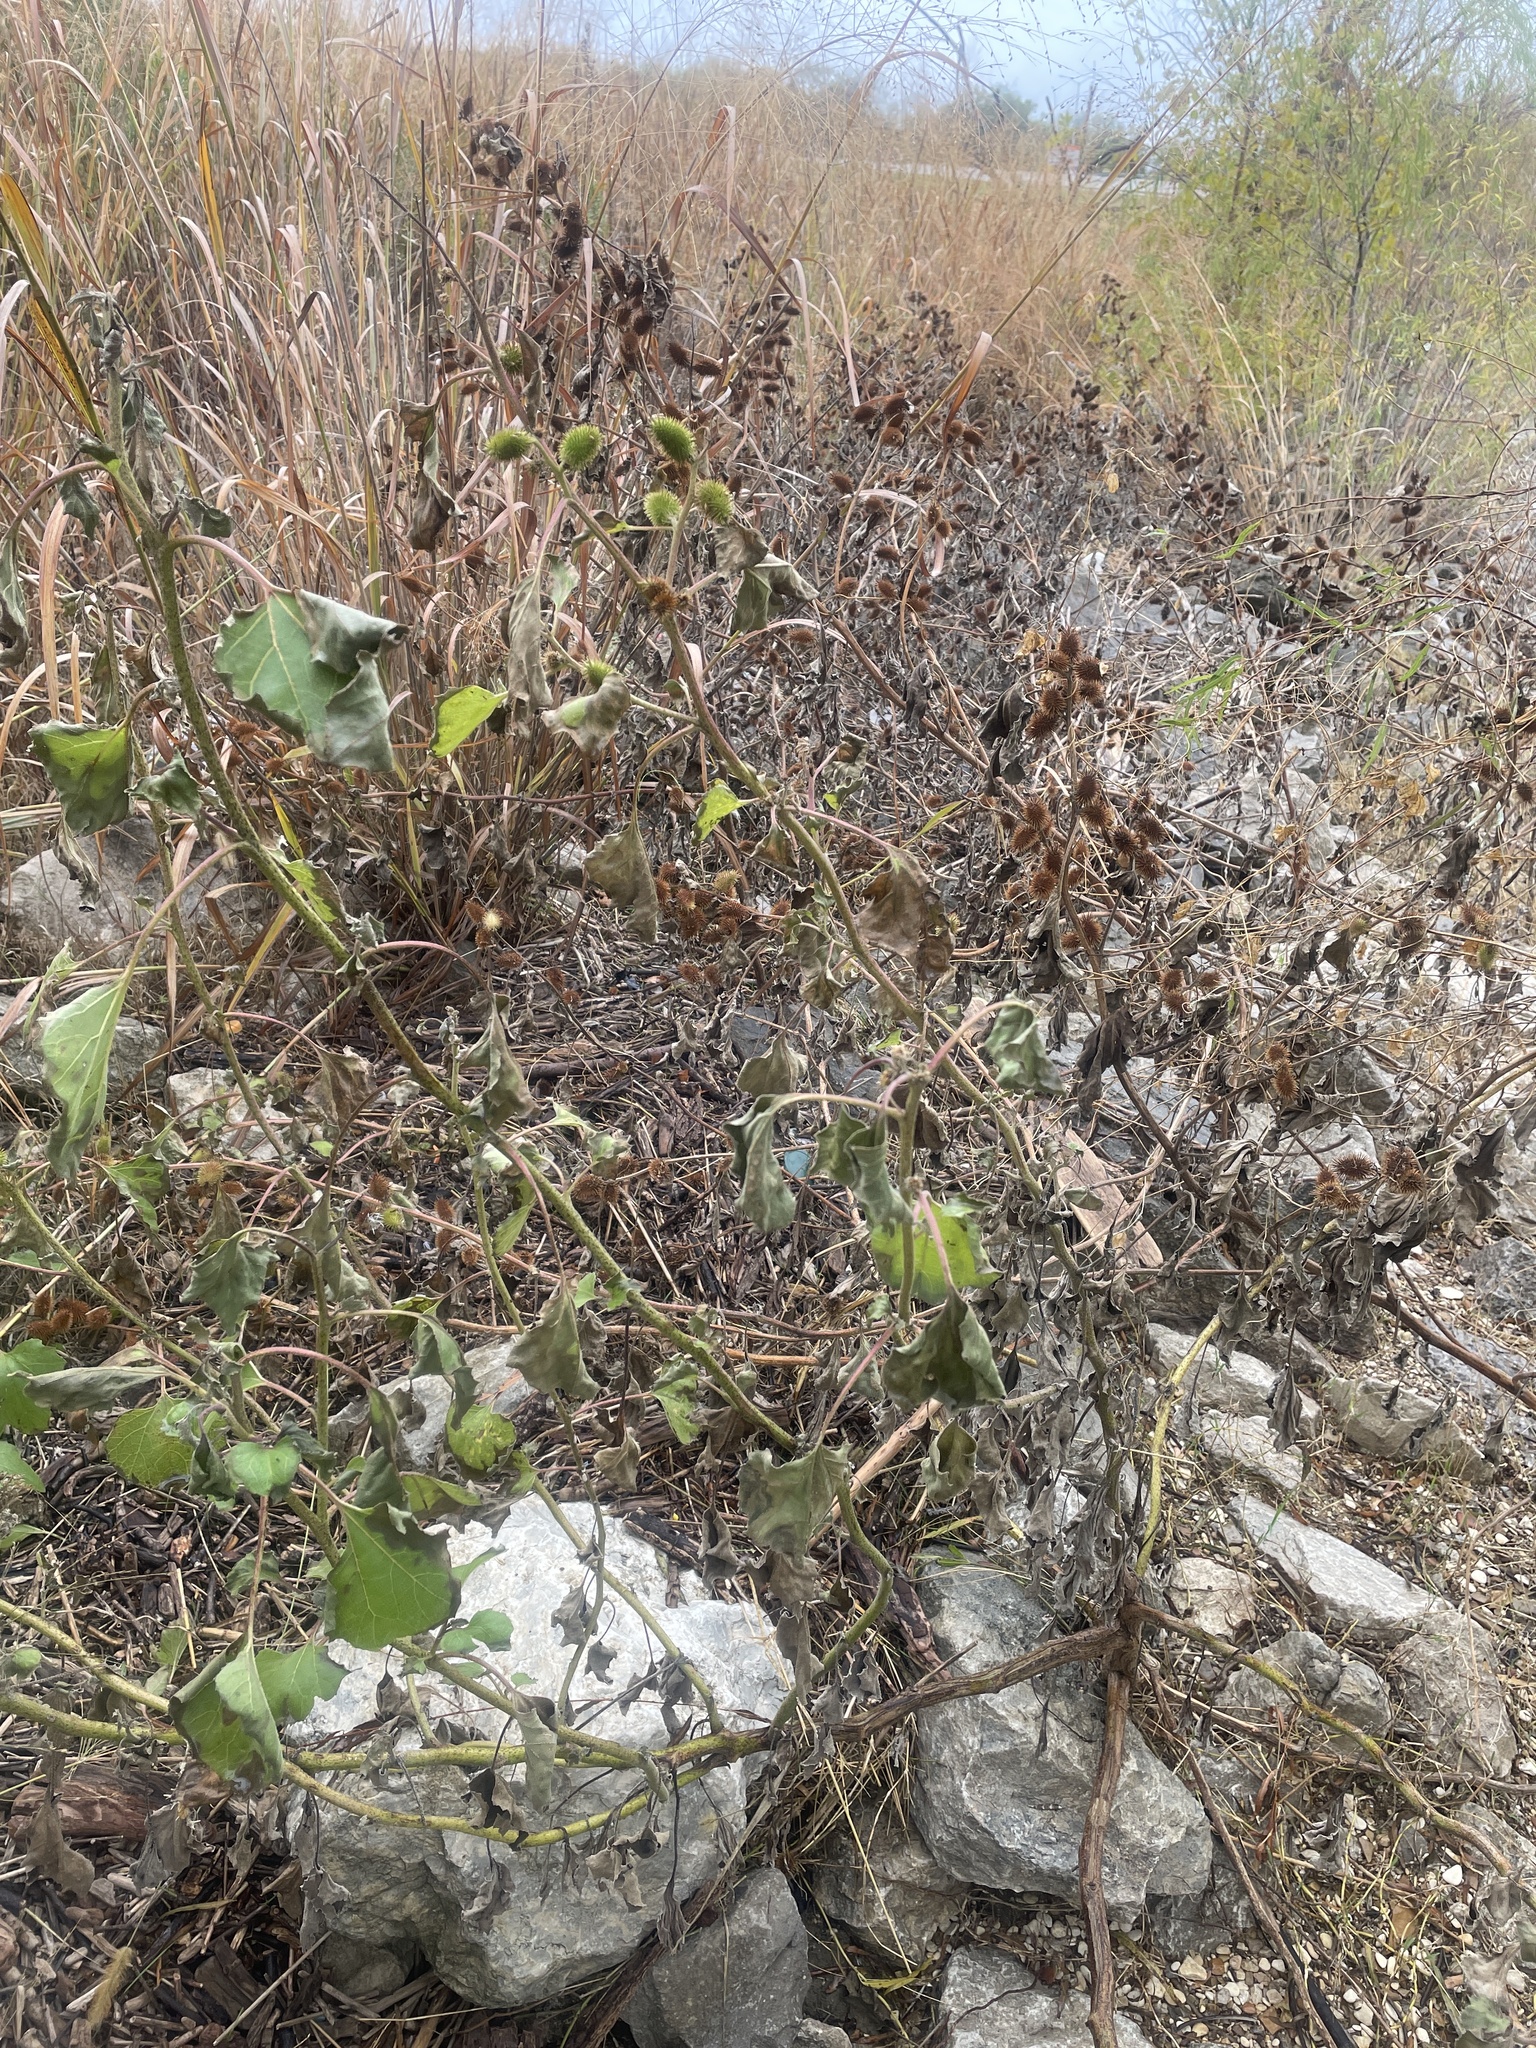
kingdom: Plantae
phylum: Tracheophyta
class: Magnoliopsida
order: Asterales
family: Asteraceae
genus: Xanthium
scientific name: Xanthium strumarium
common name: Rough cocklebur
